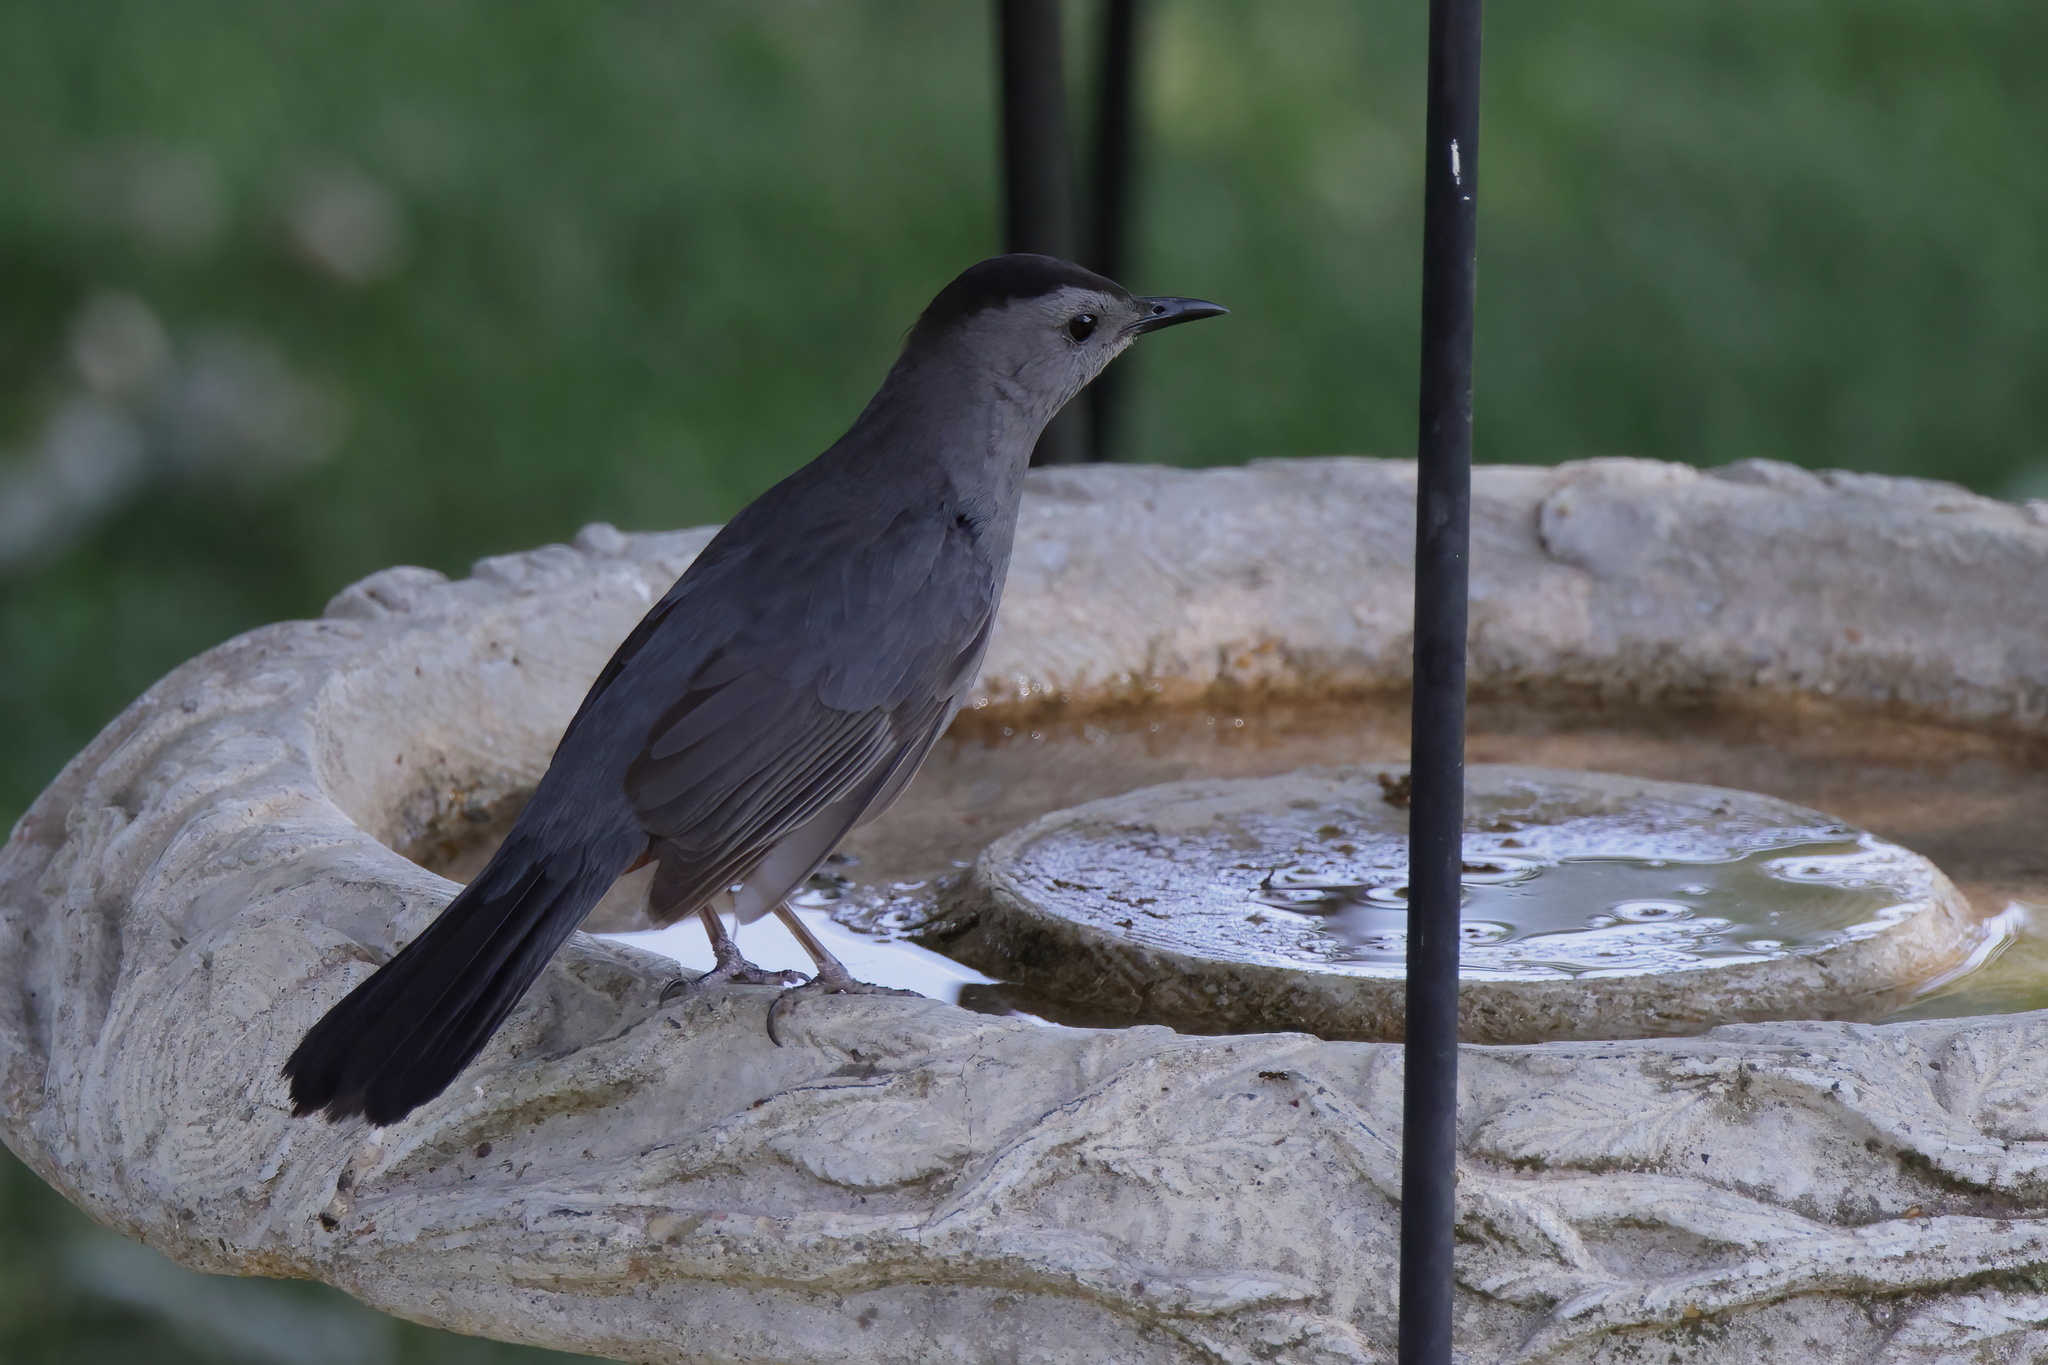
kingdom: Animalia
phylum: Chordata
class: Aves
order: Passeriformes
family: Mimidae
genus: Dumetella
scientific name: Dumetella carolinensis
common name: Gray catbird
